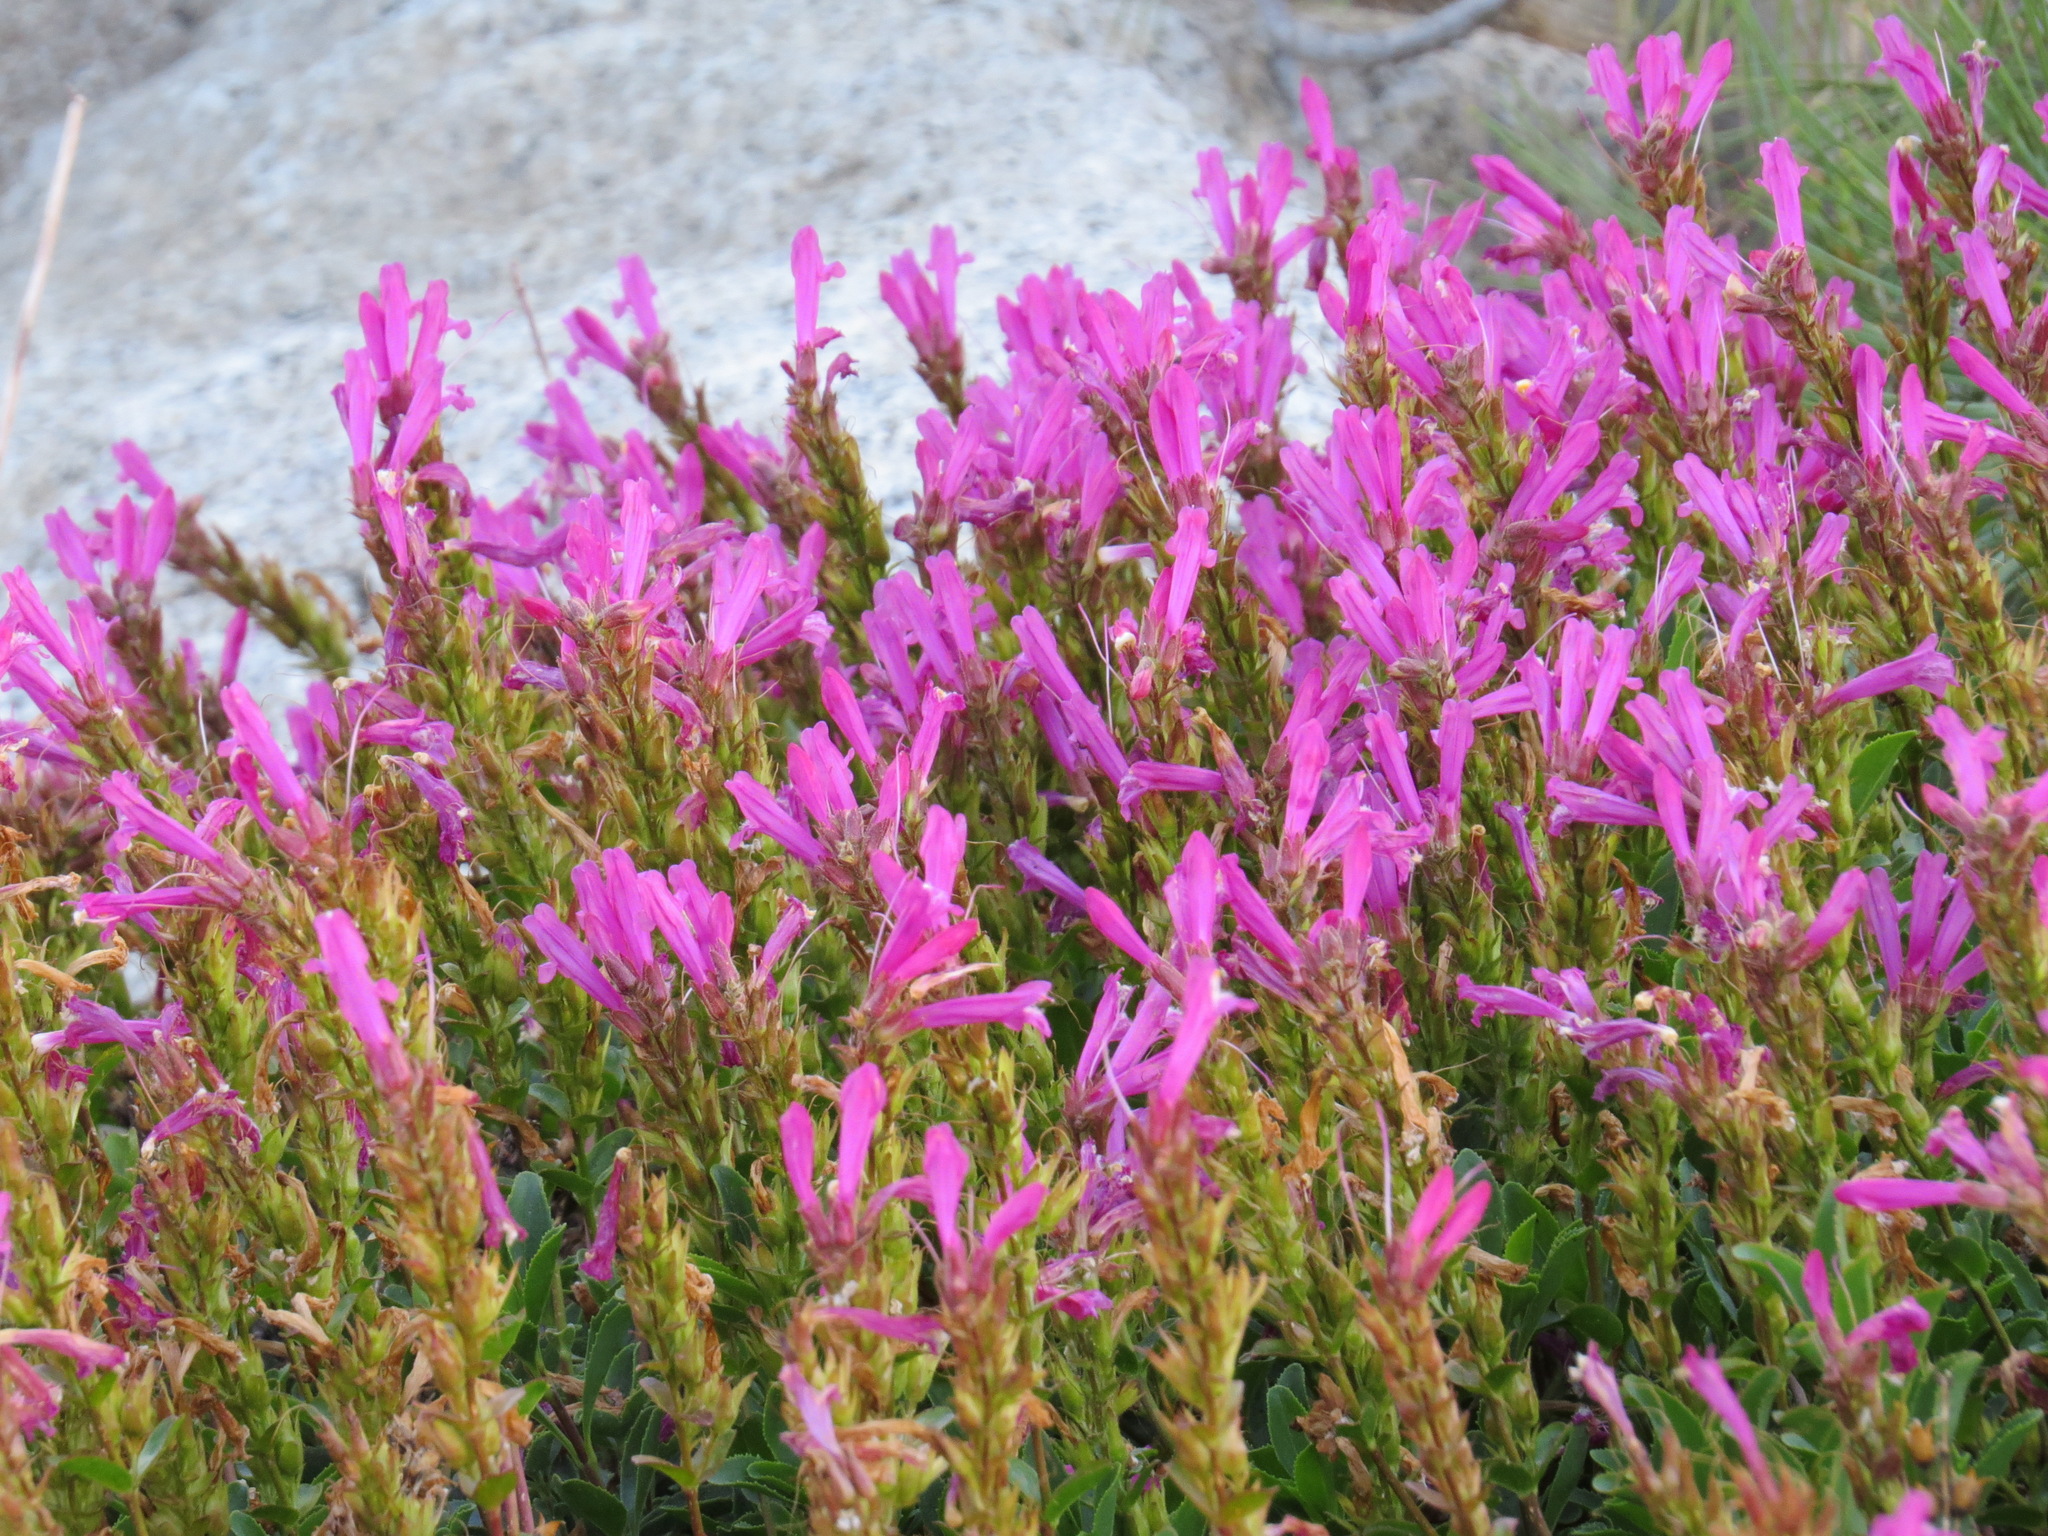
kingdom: Plantae
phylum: Tracheophyta
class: Magnoliopsida
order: Lamiales
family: Plantaginaceae
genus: Penstemon
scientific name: Penstemon newberryi
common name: Mountain-pride
